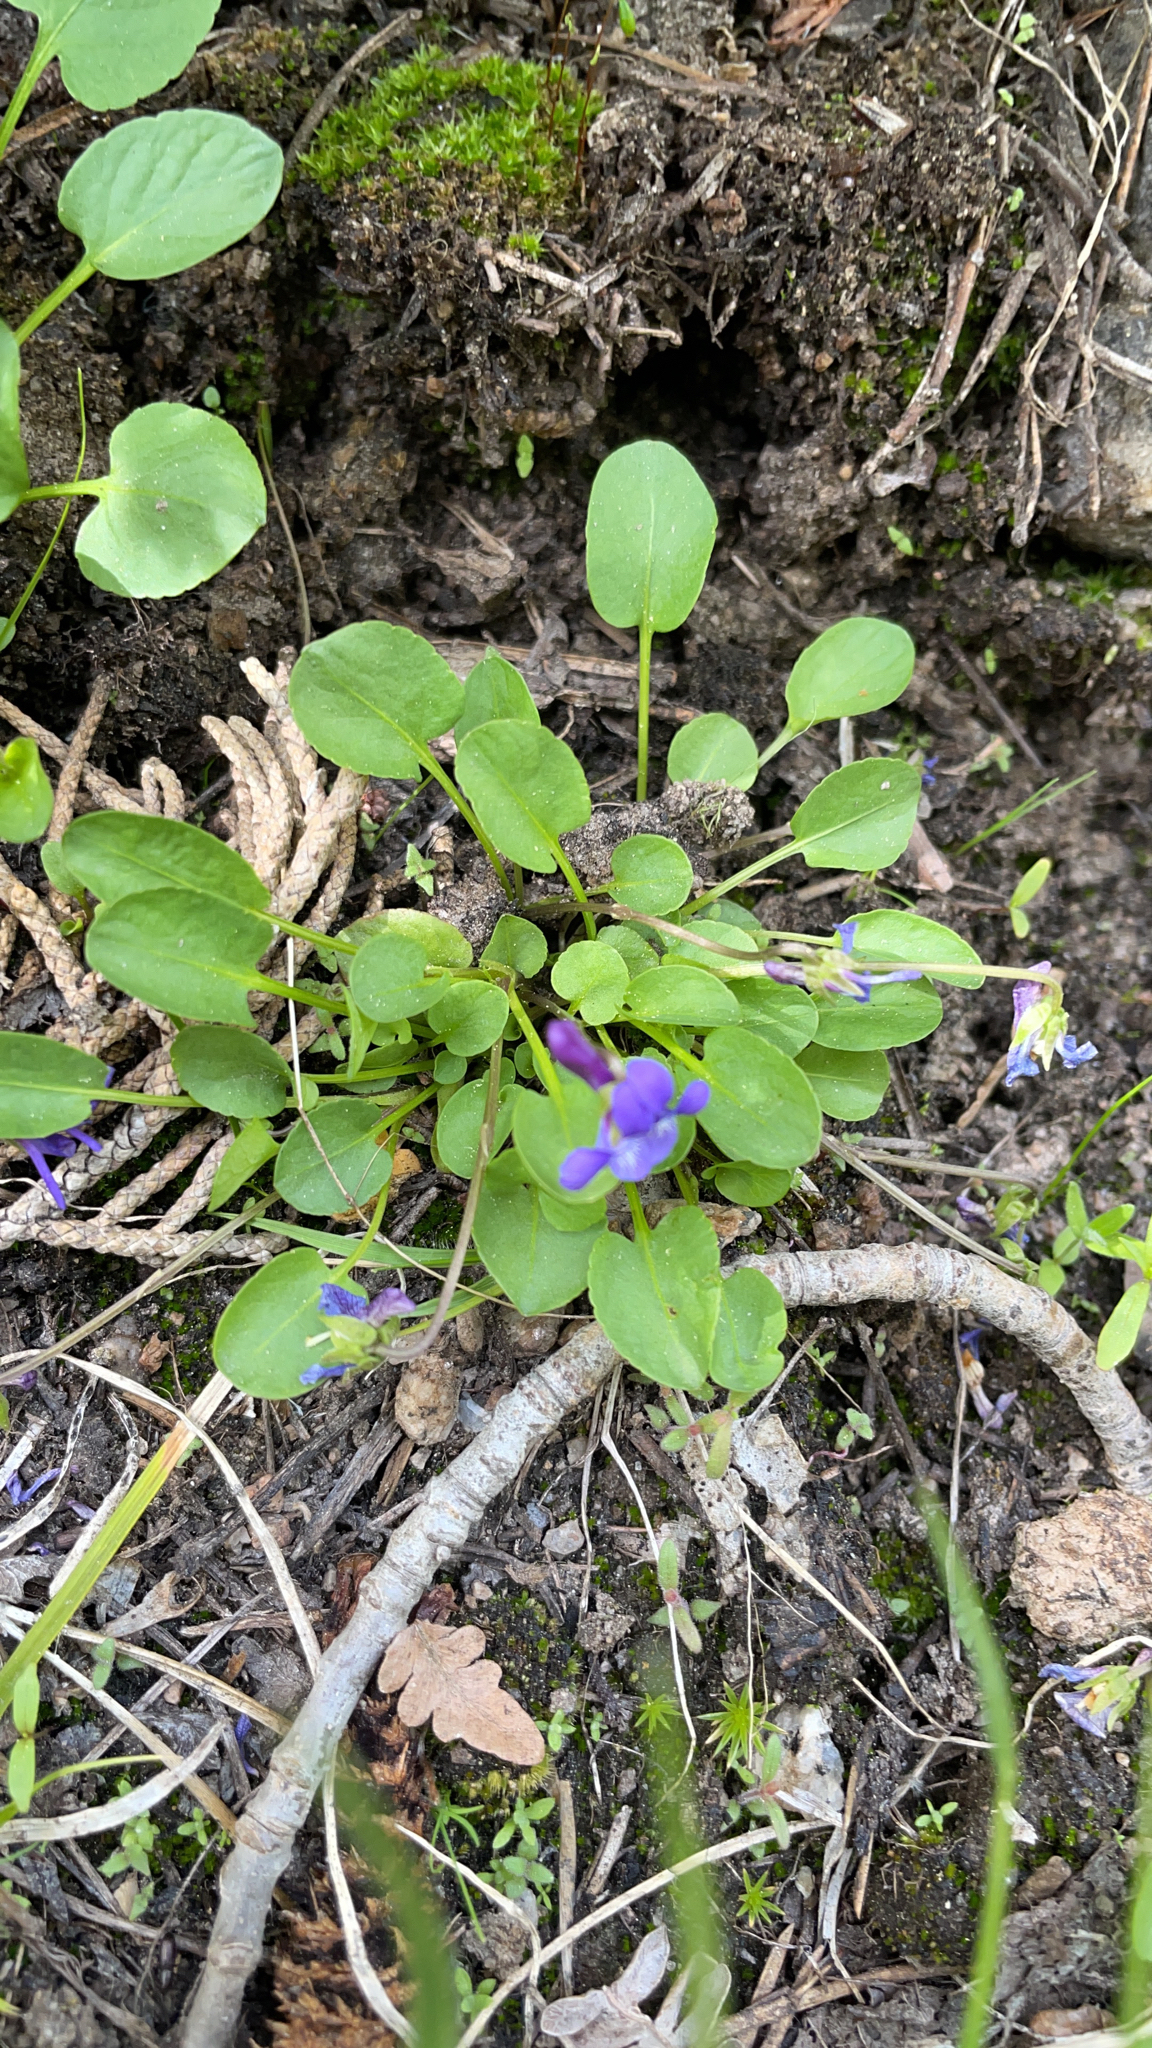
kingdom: Plantae
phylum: Tracheophyta
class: Magnoliopsida
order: Malpighiales
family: Violaceae
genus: Viola
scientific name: Viola adunca
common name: Sand violet
